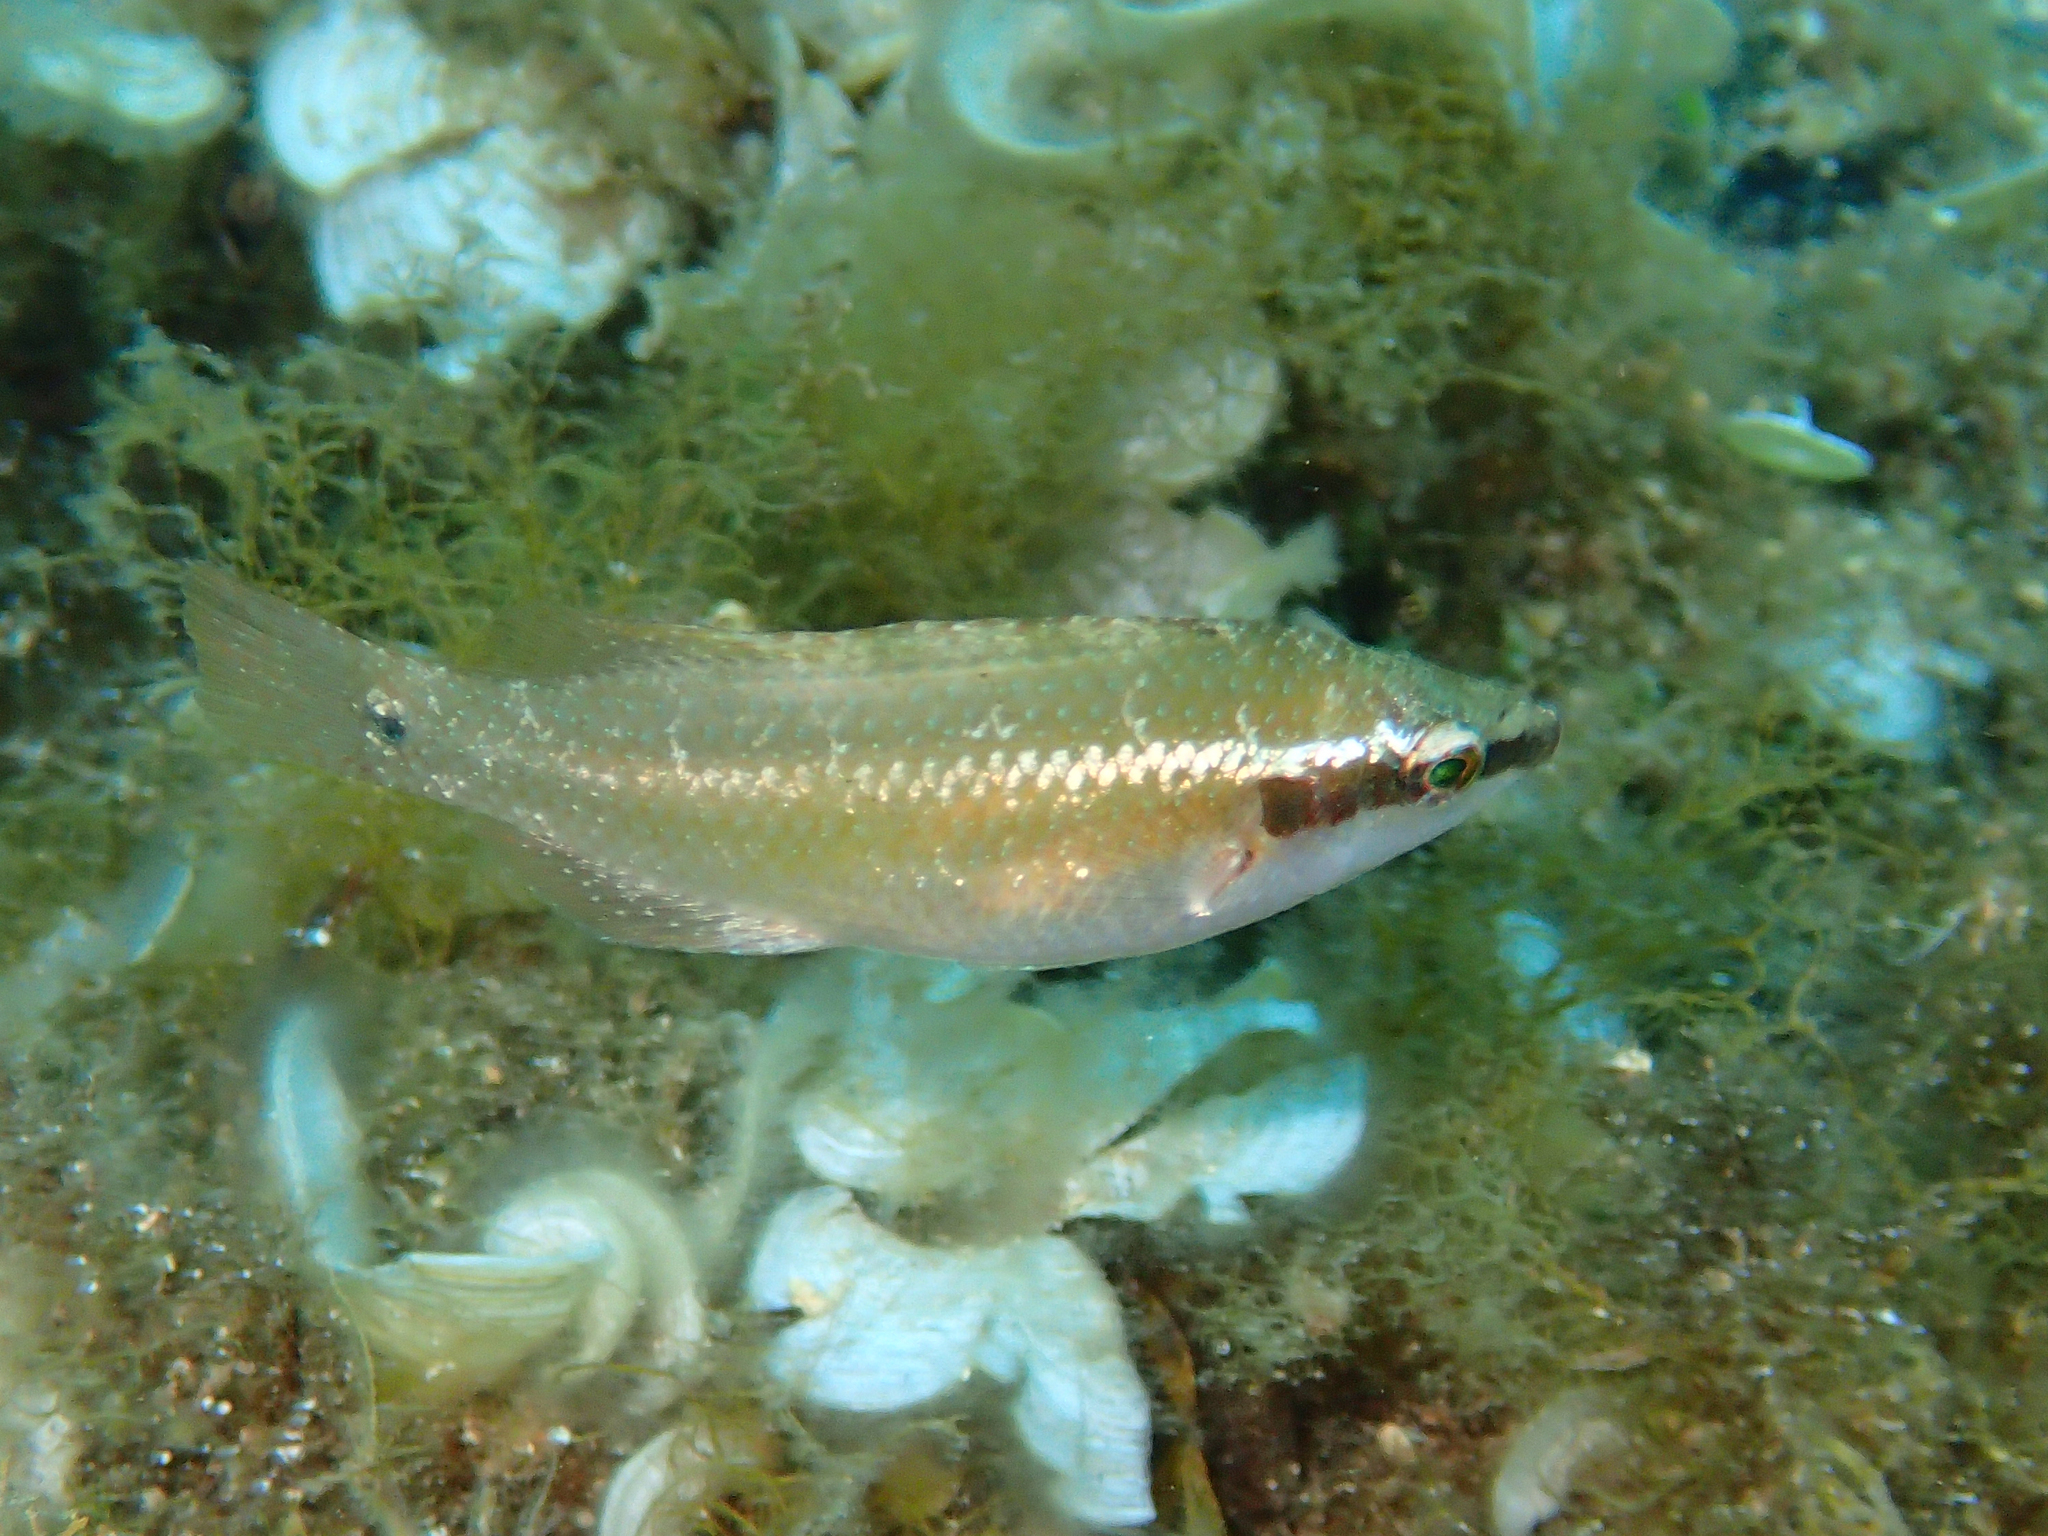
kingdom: Animalia
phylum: Chordata
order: Perciformes
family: Labridae
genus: Symphodus
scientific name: Symphodus ocellatus
